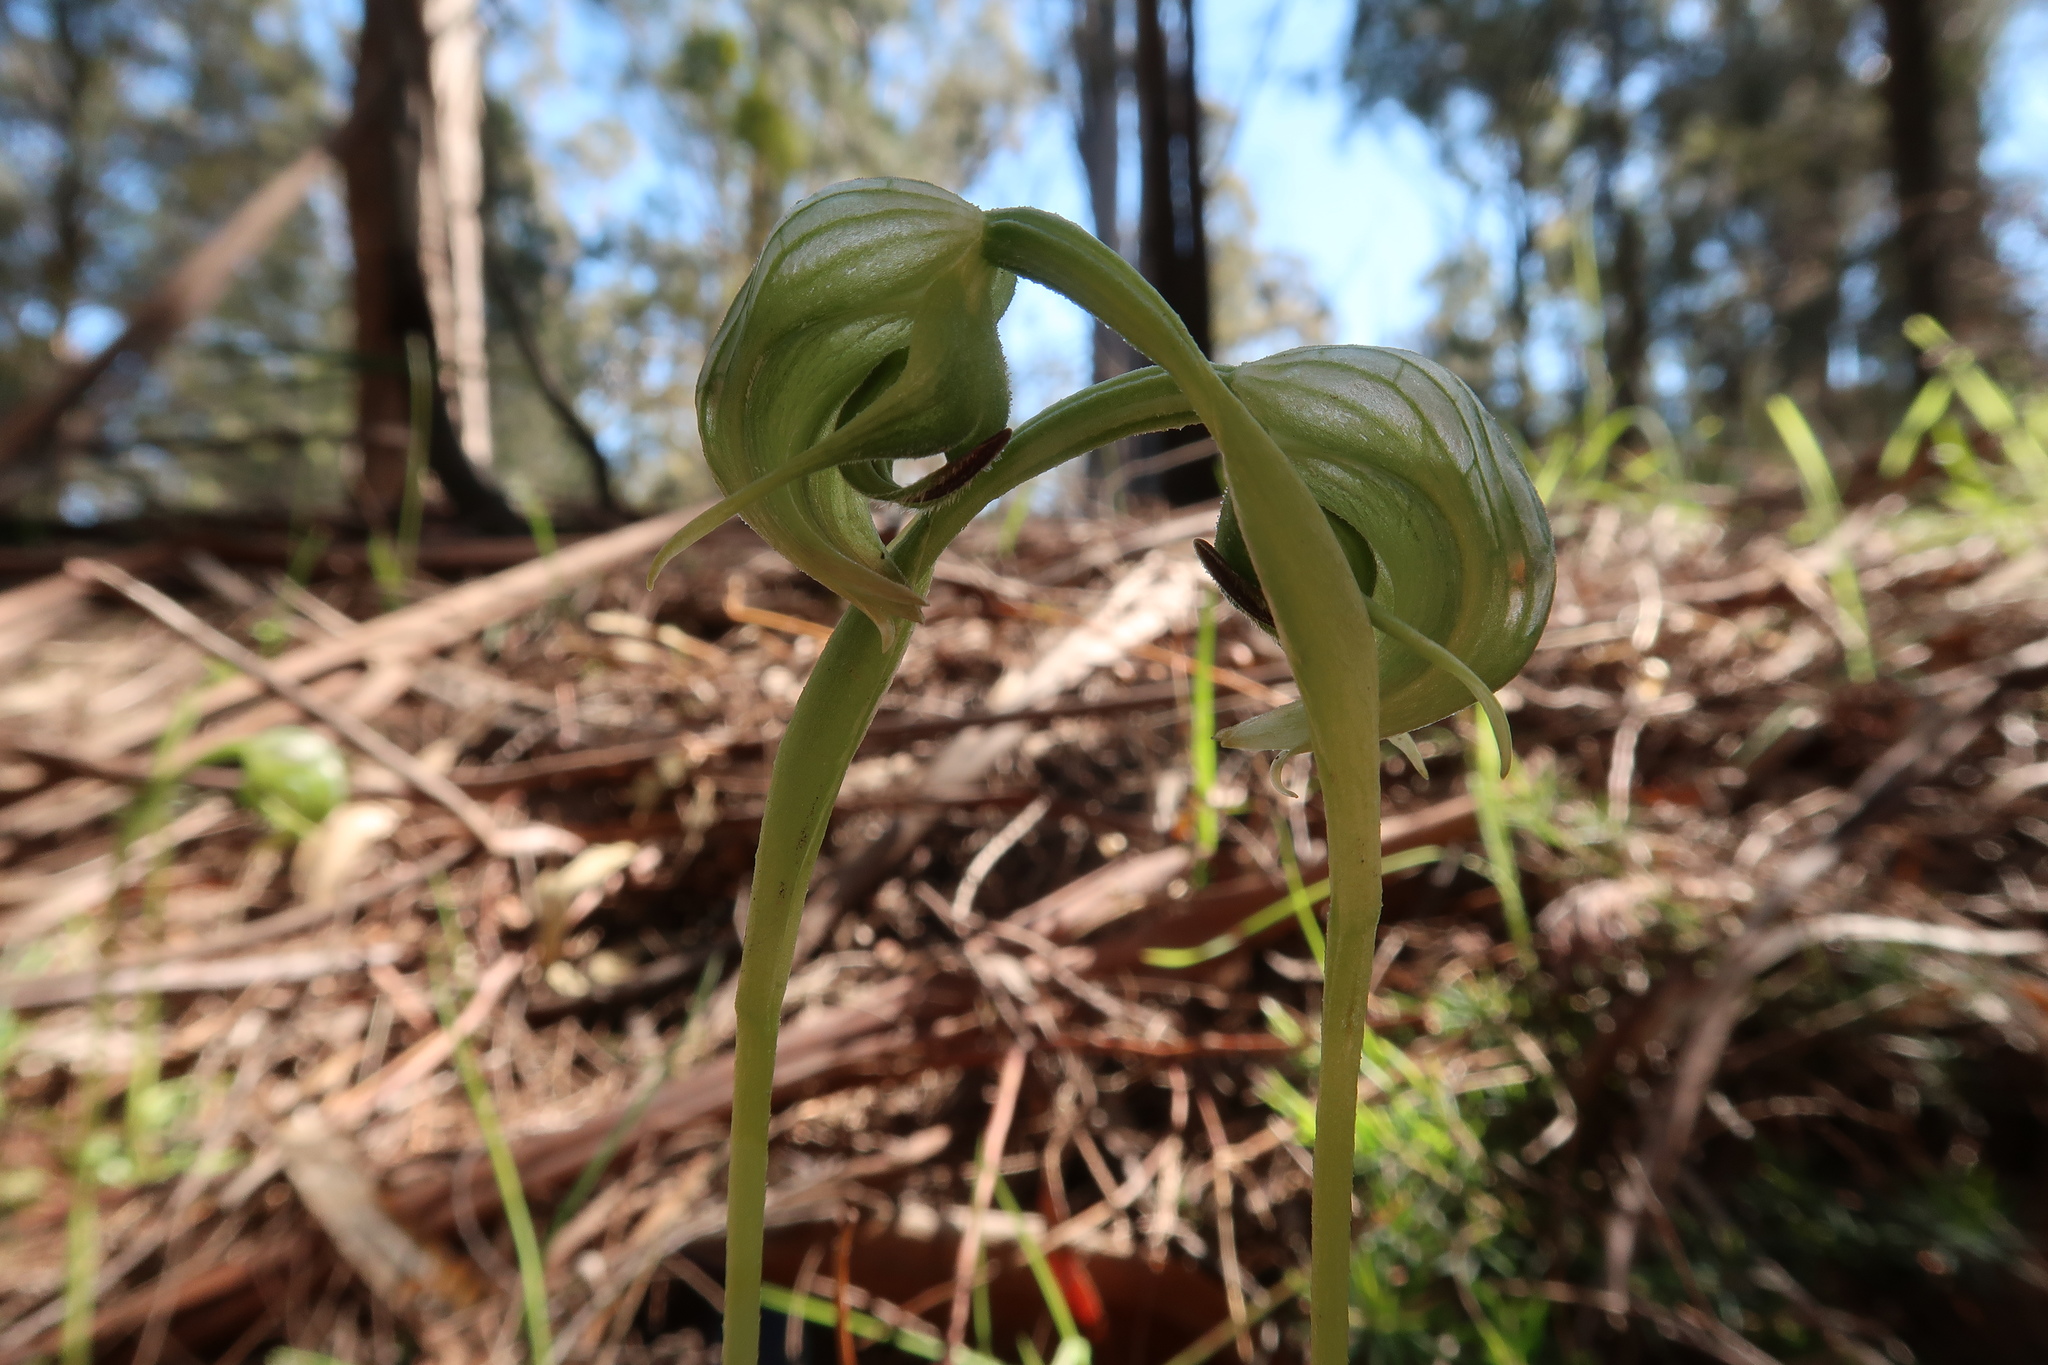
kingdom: Plantae
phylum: Tracheophyta
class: Liliopsida
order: Asparagales
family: Orchidaceae
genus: Pterostylis
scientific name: Pterostylis nutans
